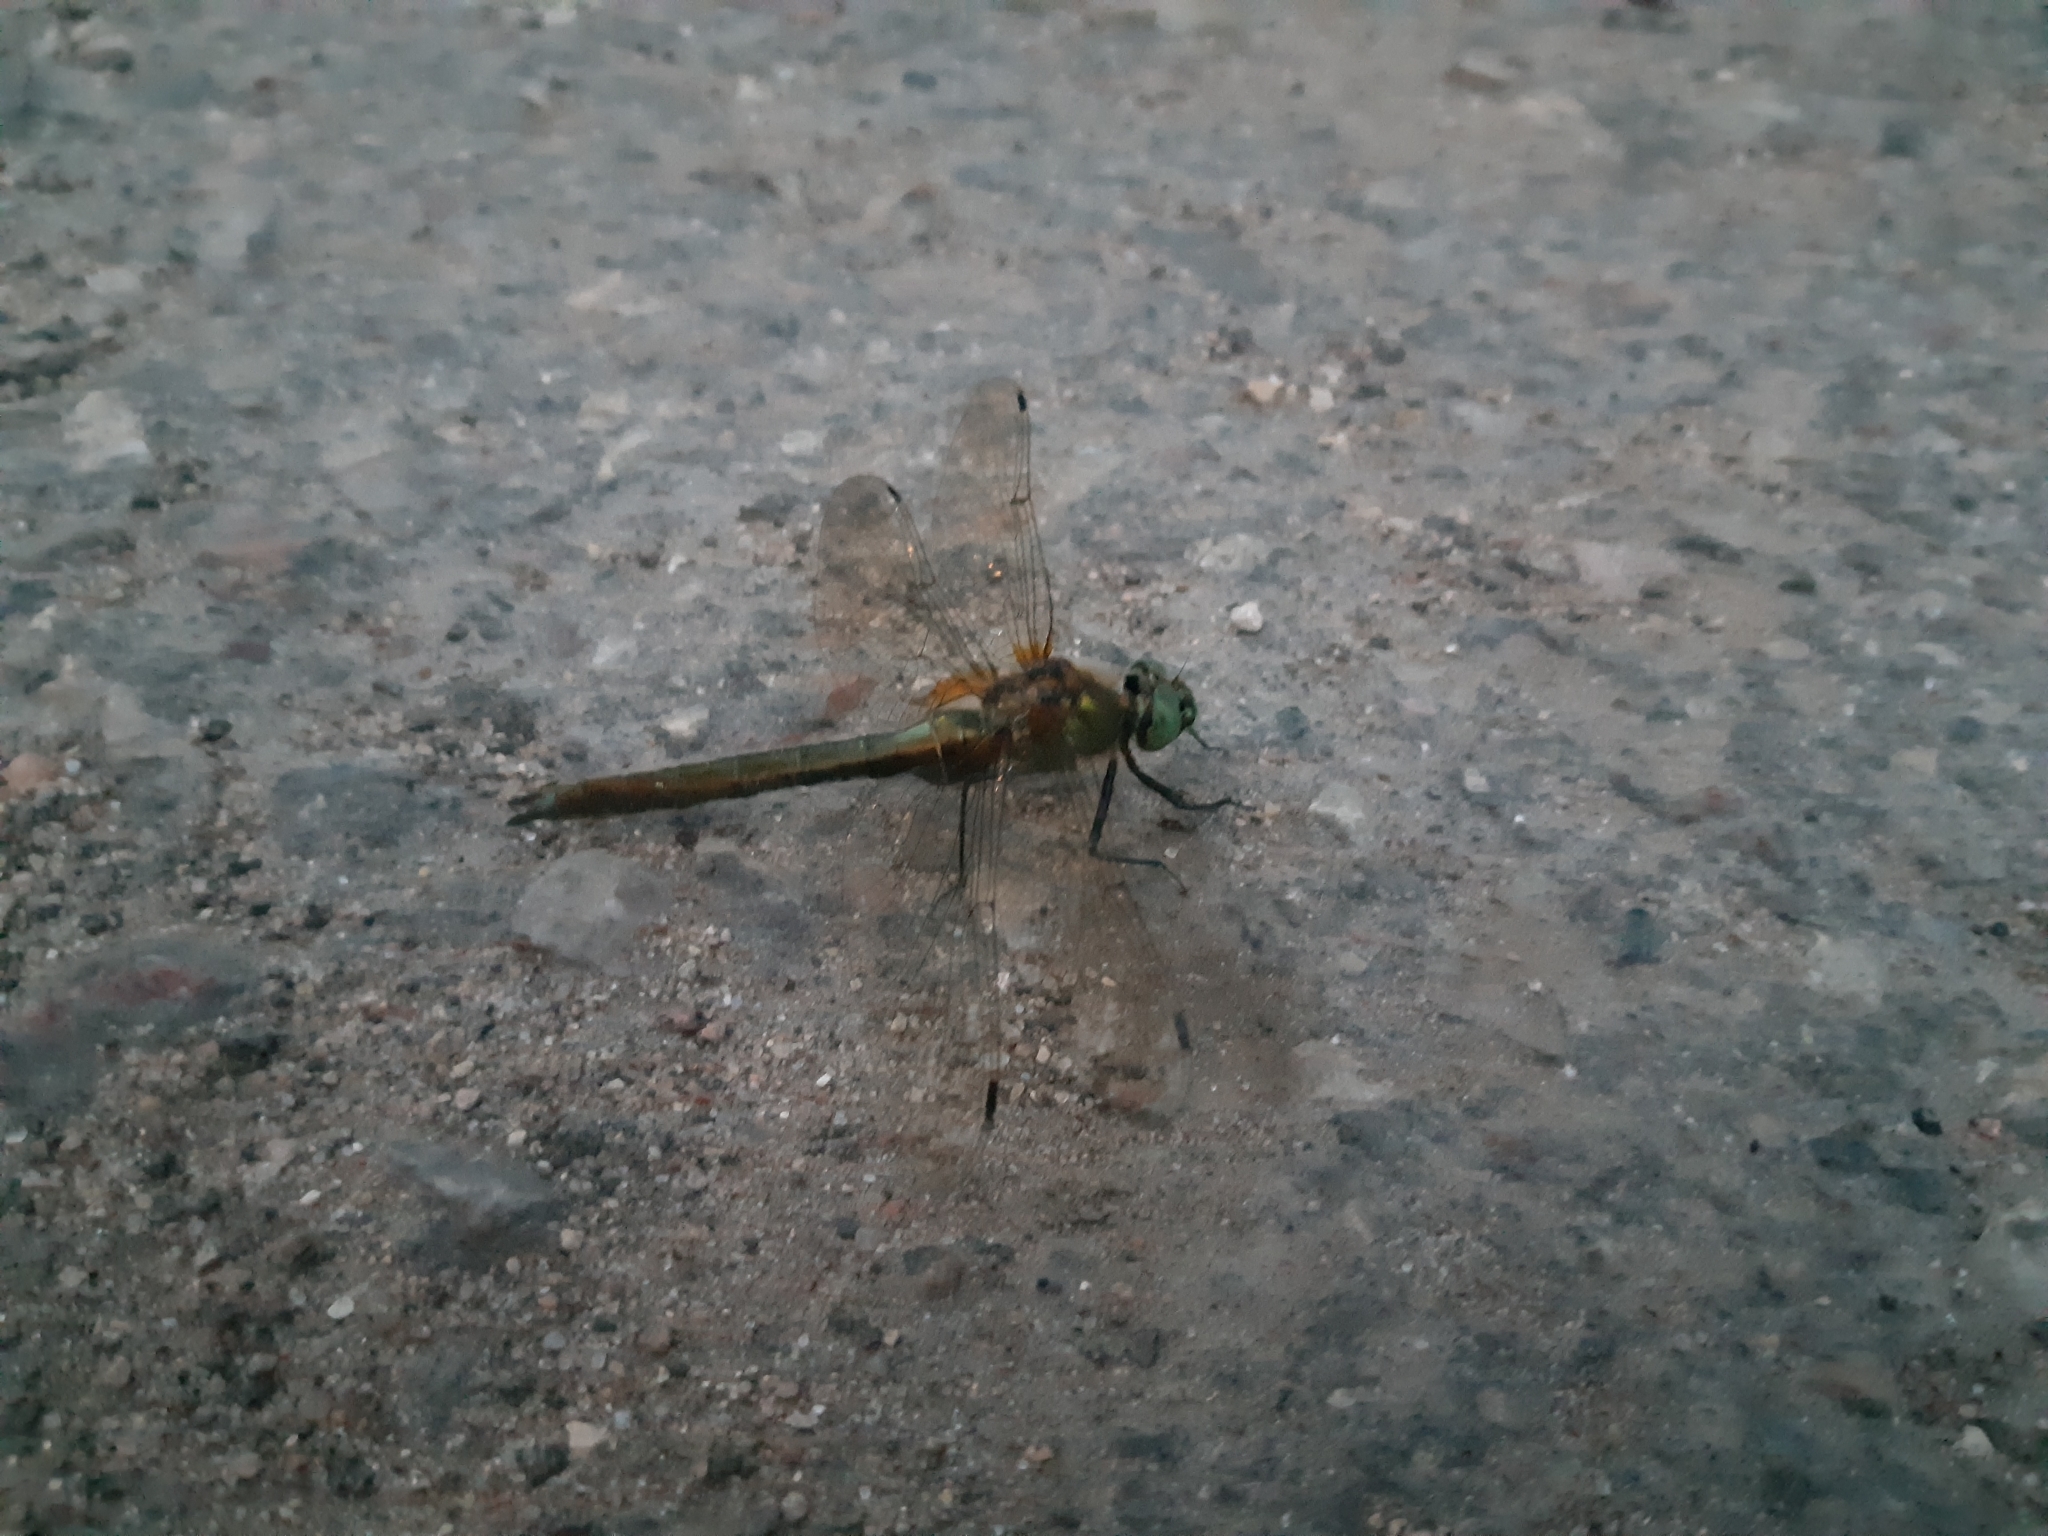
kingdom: Animalia
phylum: Arthropoda
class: Insecta
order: Odonata
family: Corduliidae
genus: Cordulia
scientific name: Cordulia aenea
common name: Downy emerald
